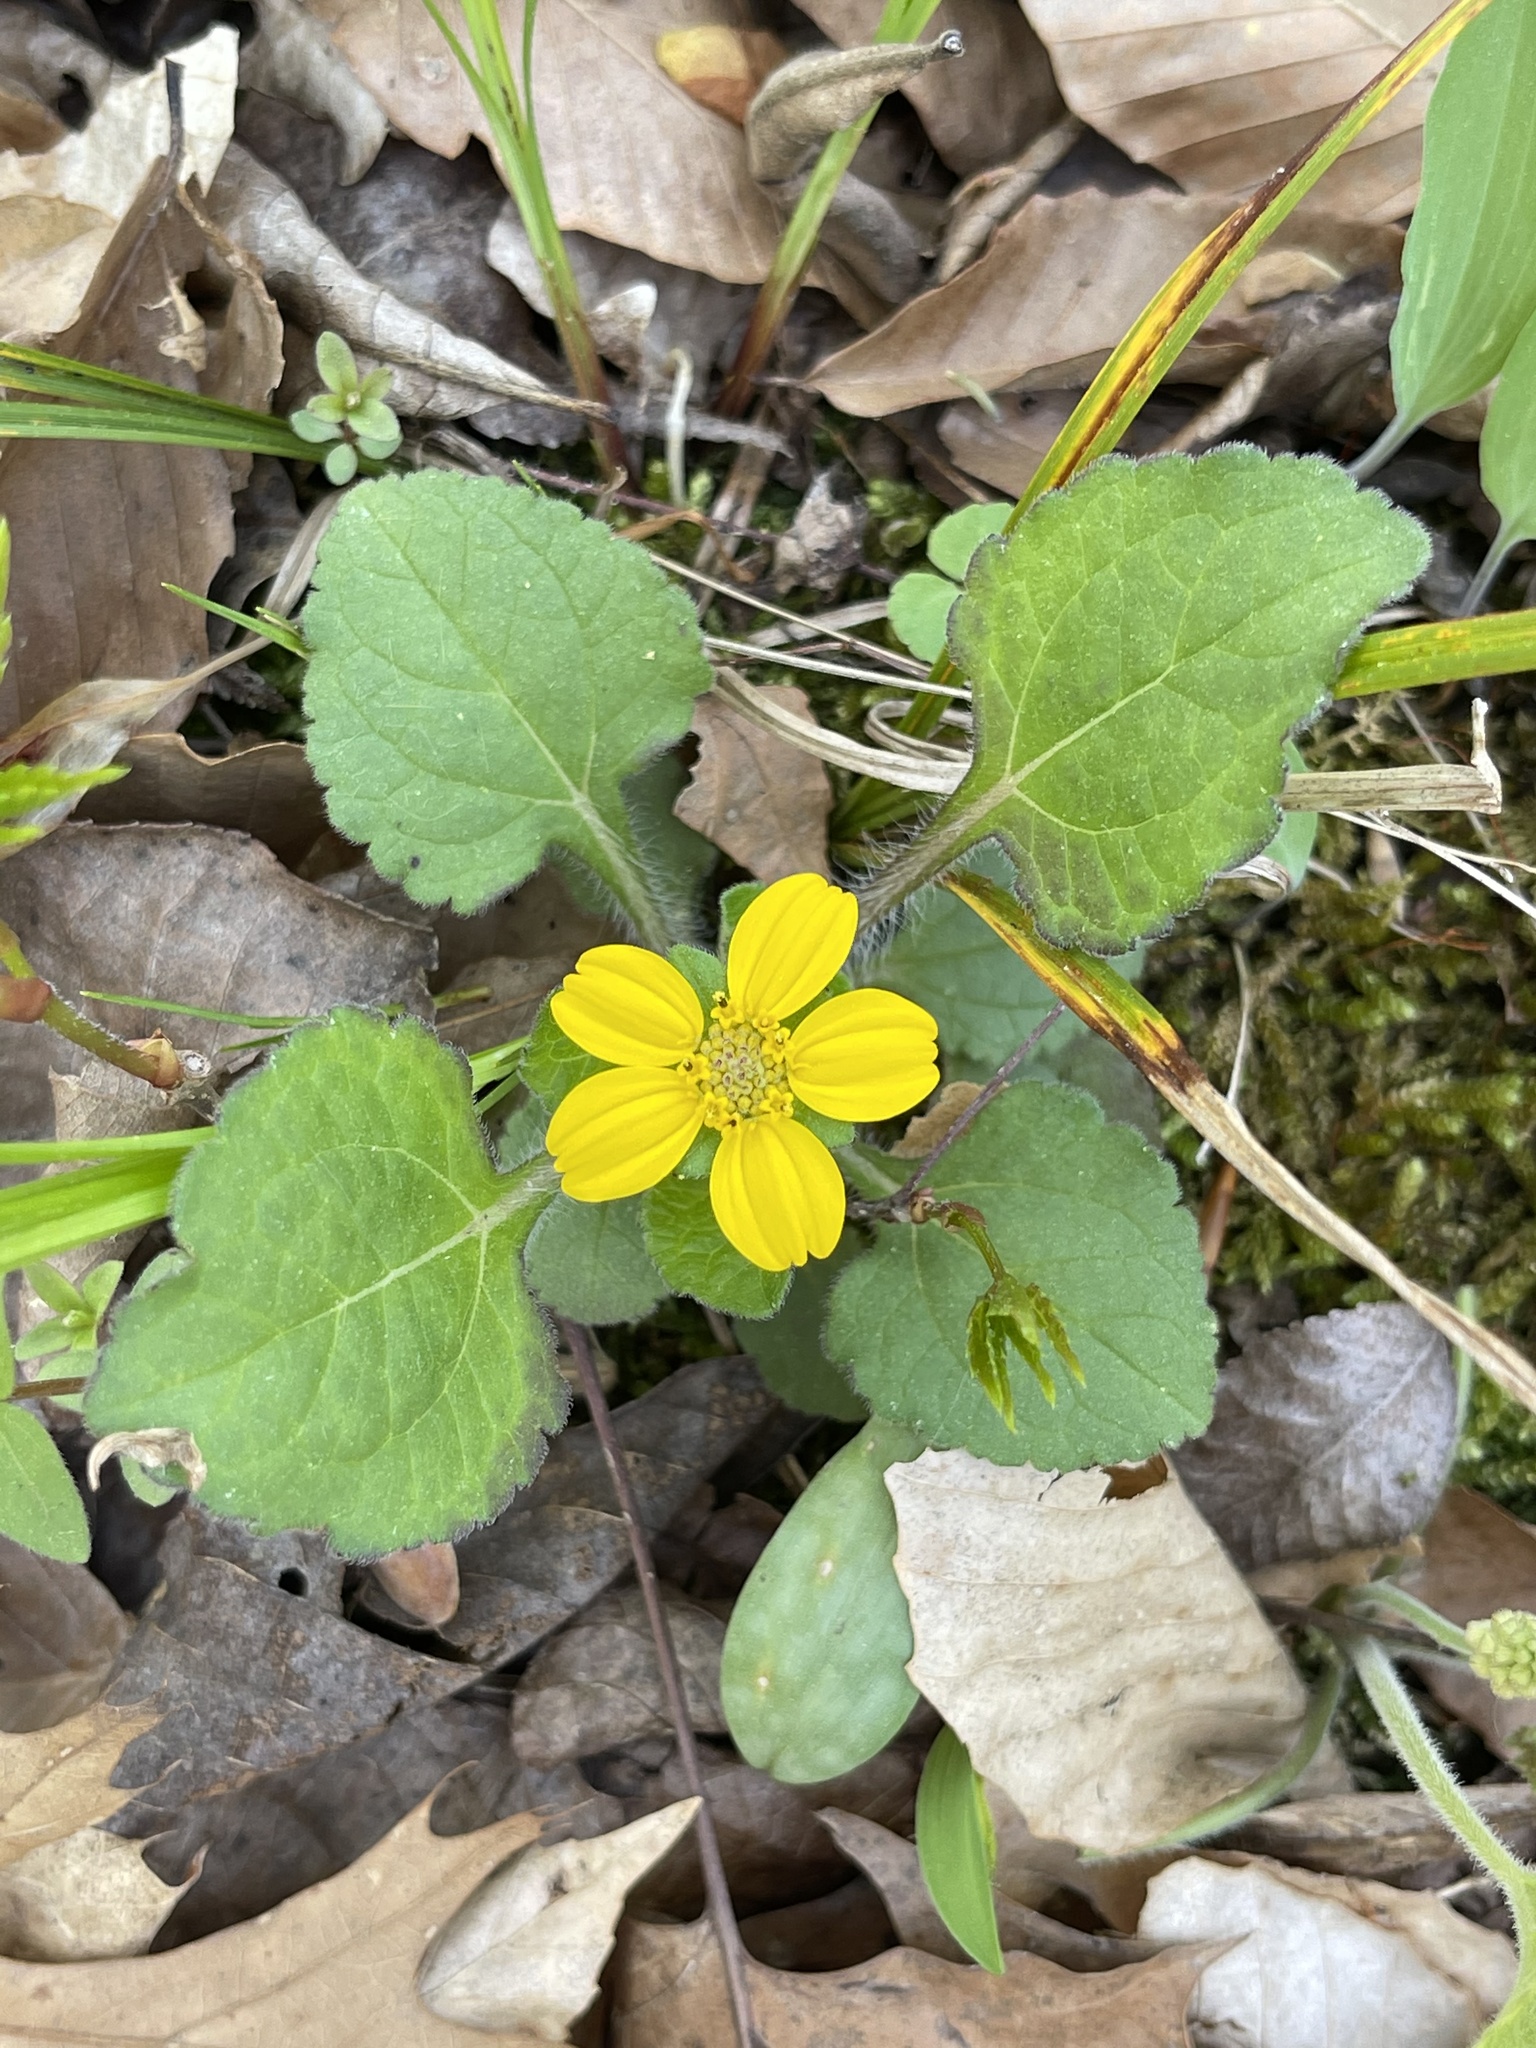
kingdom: Plantae
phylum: Tracheophyta
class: Magnoliopsida
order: Asterales
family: Asteraceae
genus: Chrysogonum
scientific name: Chrysogonum virginianum
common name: Golden-knee
